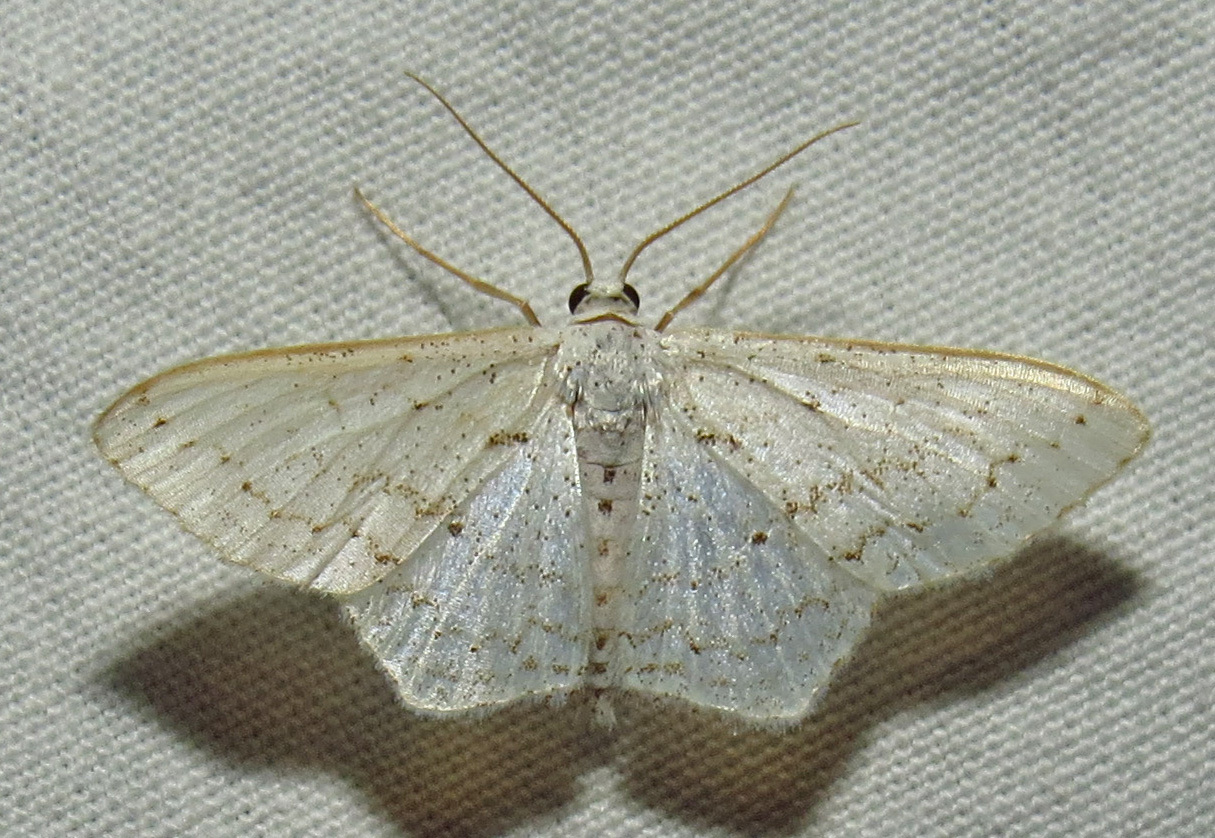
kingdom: Animalia
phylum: Arthropoda
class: Insecta
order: Lepidoptera
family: Geometridae
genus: Idaea
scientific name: Idaea tacturata
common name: Dot-lined wave
